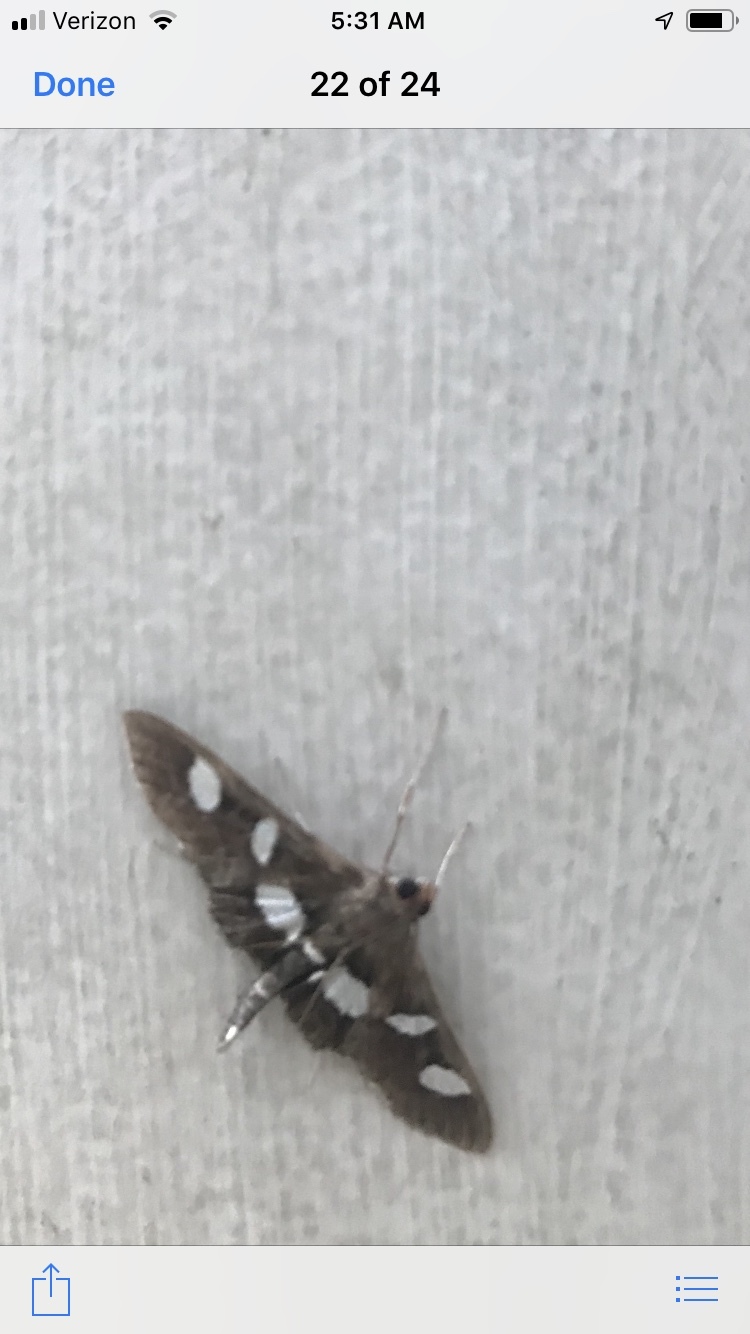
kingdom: Animalia
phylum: Arthropoda
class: Insecta
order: Lepidoptera
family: Crambidae
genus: Desmia
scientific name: Desmia
